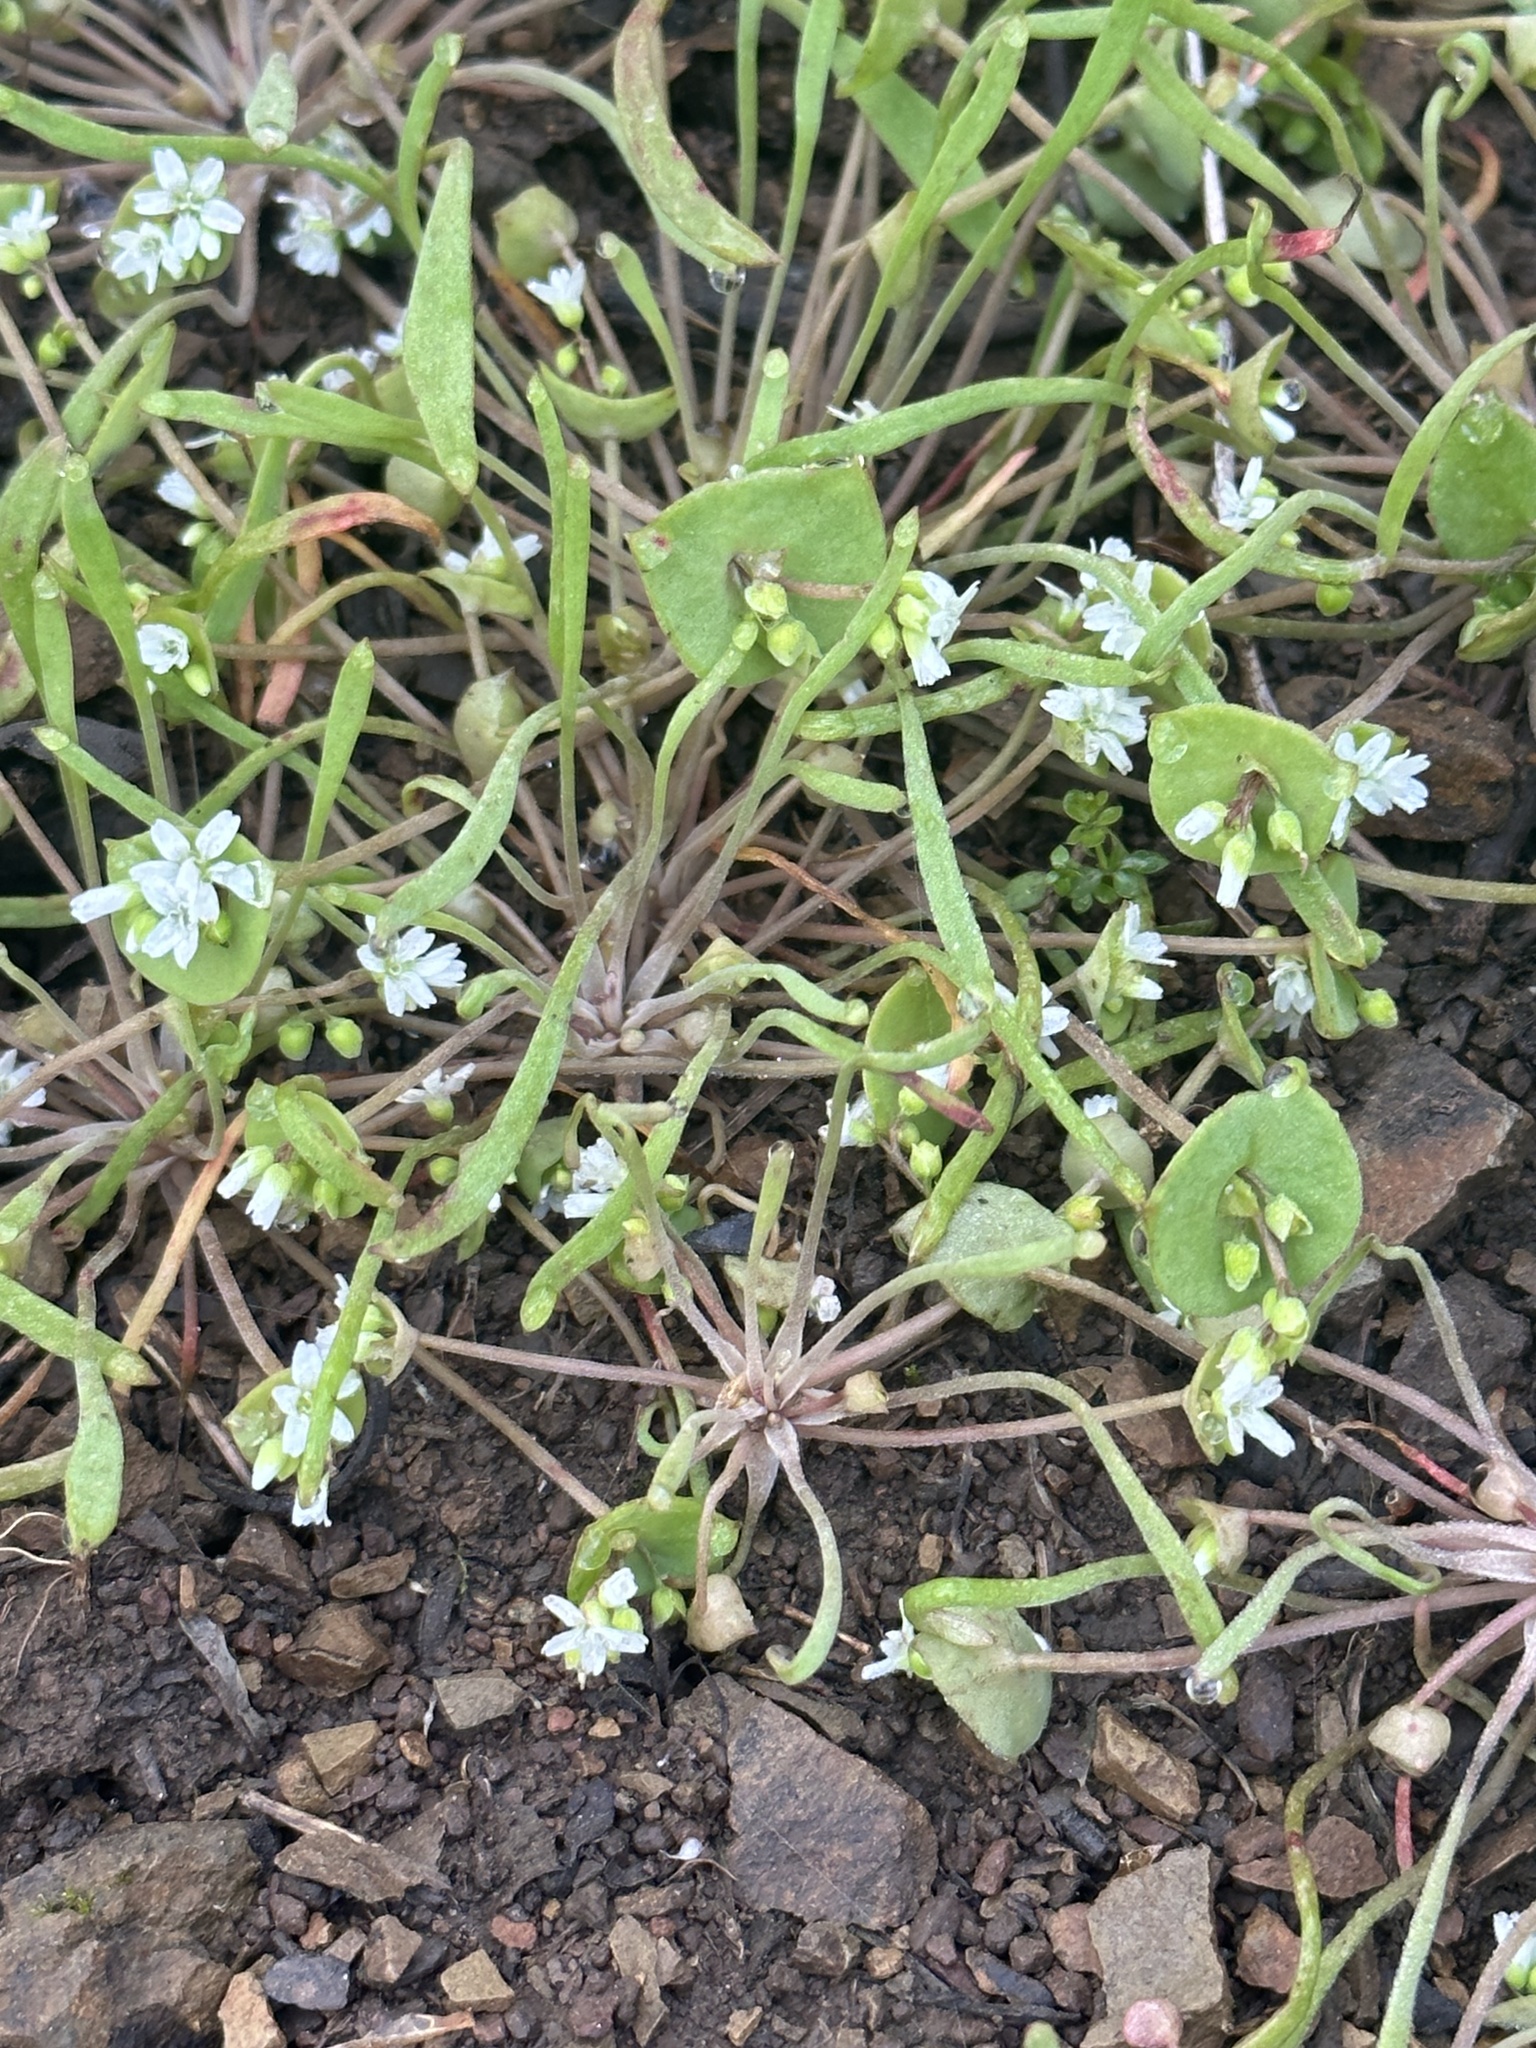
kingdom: Plantae
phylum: Tracheophyta
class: Magnoliopsida
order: Caryophyllales
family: Montiaceae
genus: Claytonia
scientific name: Claytonia parviflora
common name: Indian-lettuce
